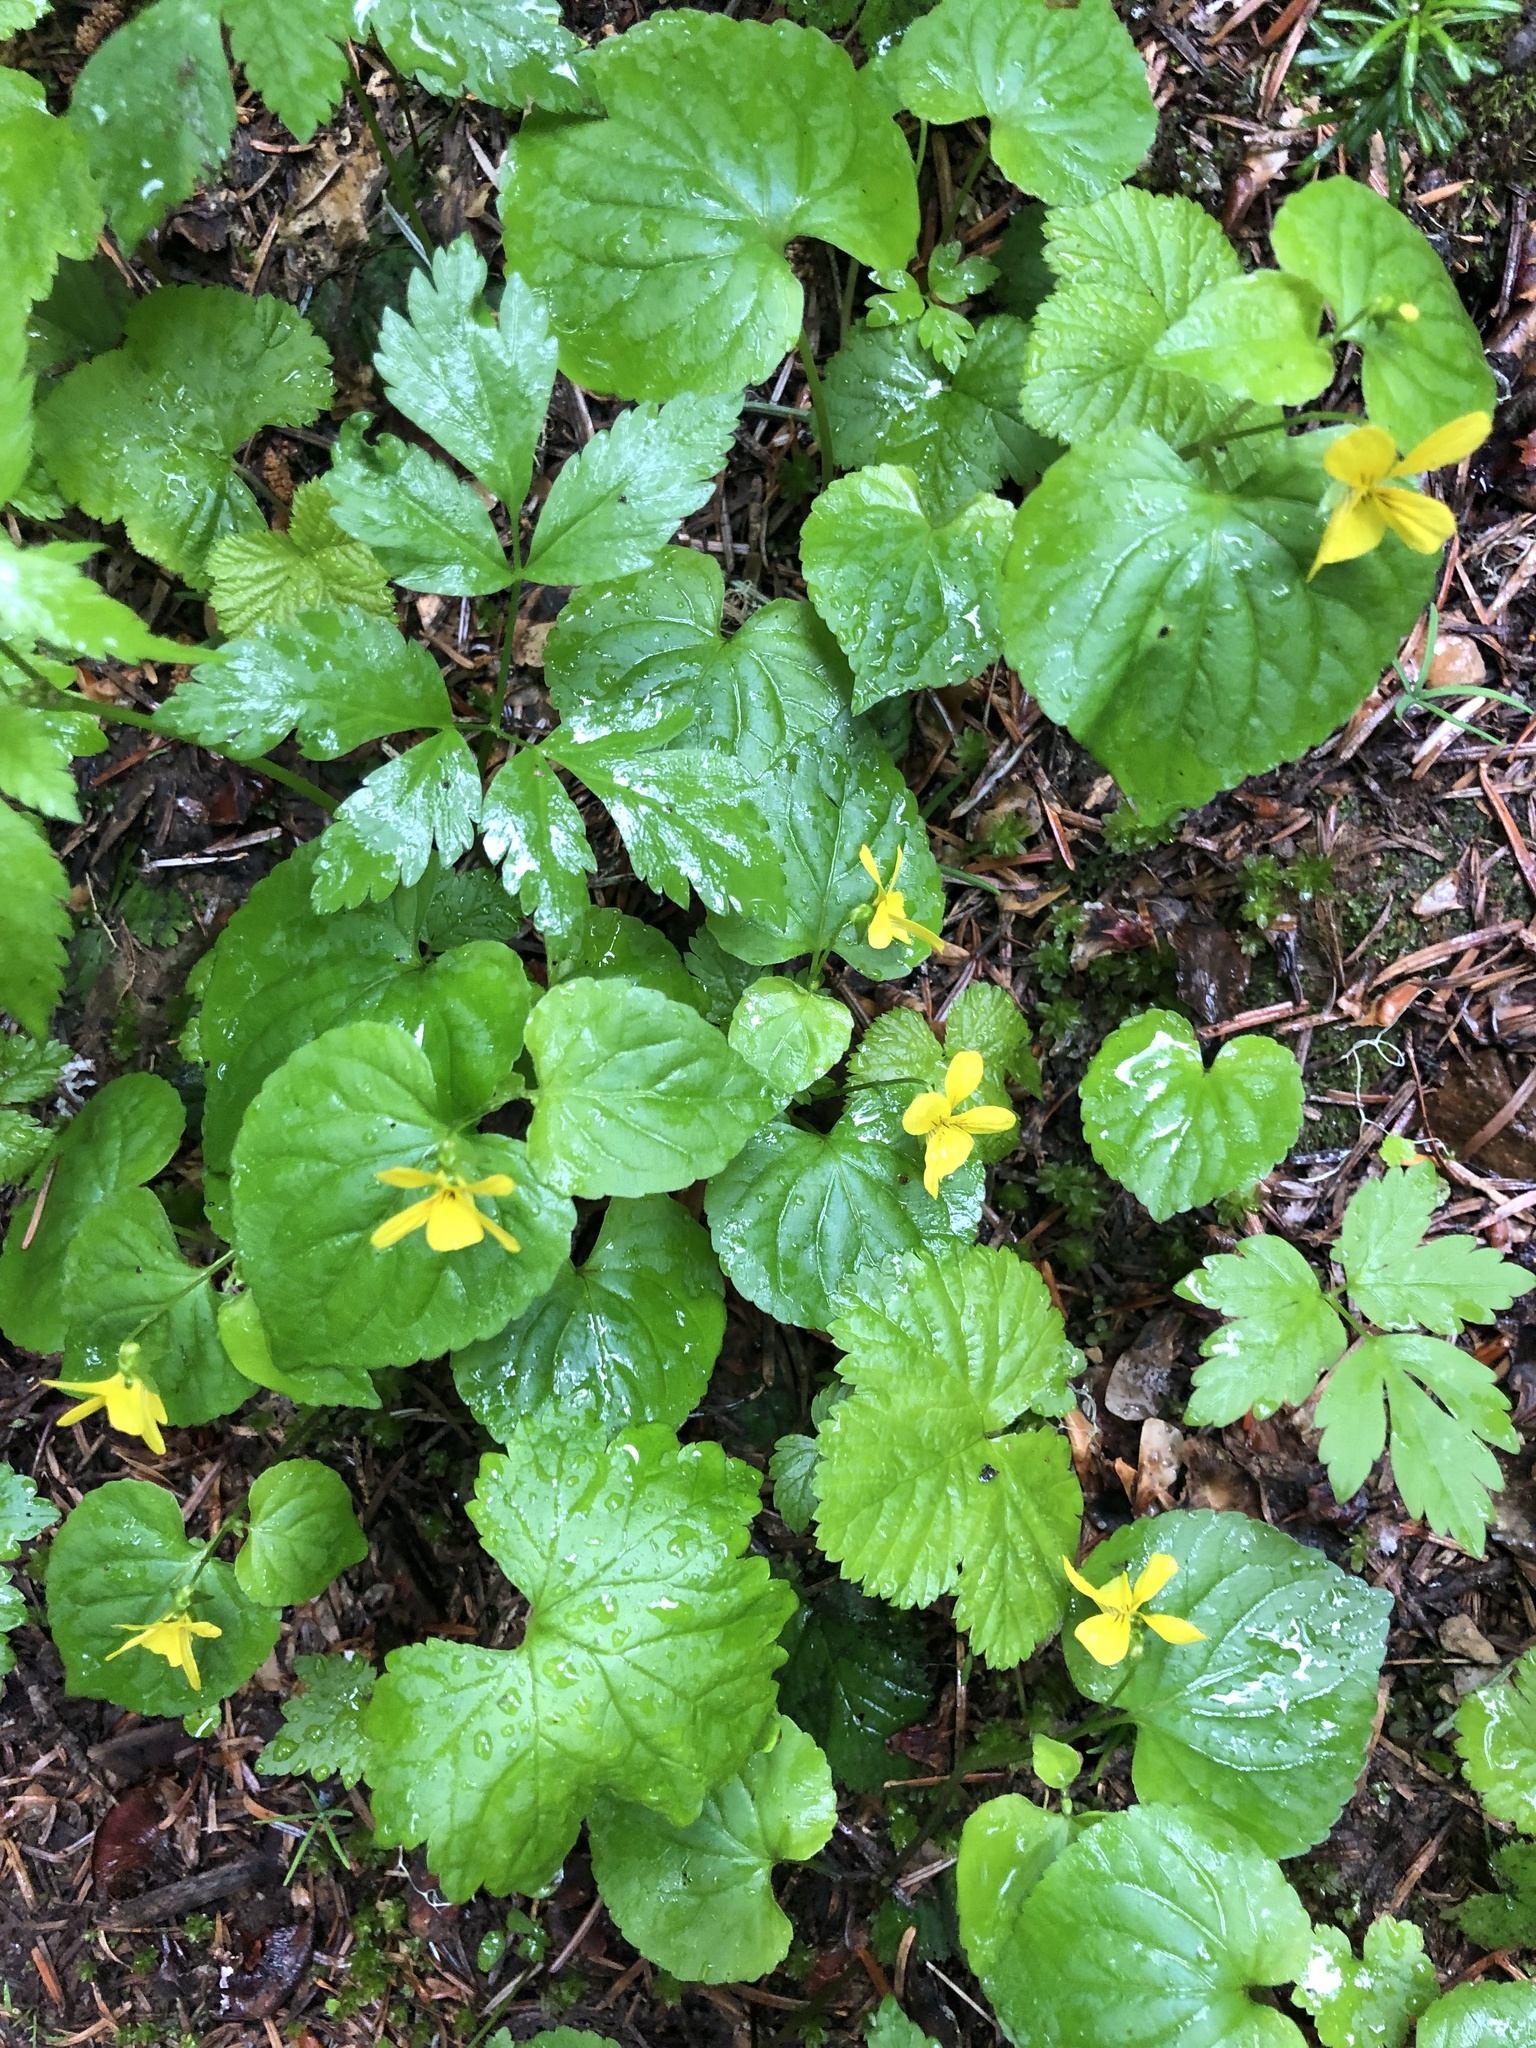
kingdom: Plantae
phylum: Tracheophyta
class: Magnoliopsida
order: Malpighiales
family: Violaceae
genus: Viola
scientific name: Viola glabella
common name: Stream violet
